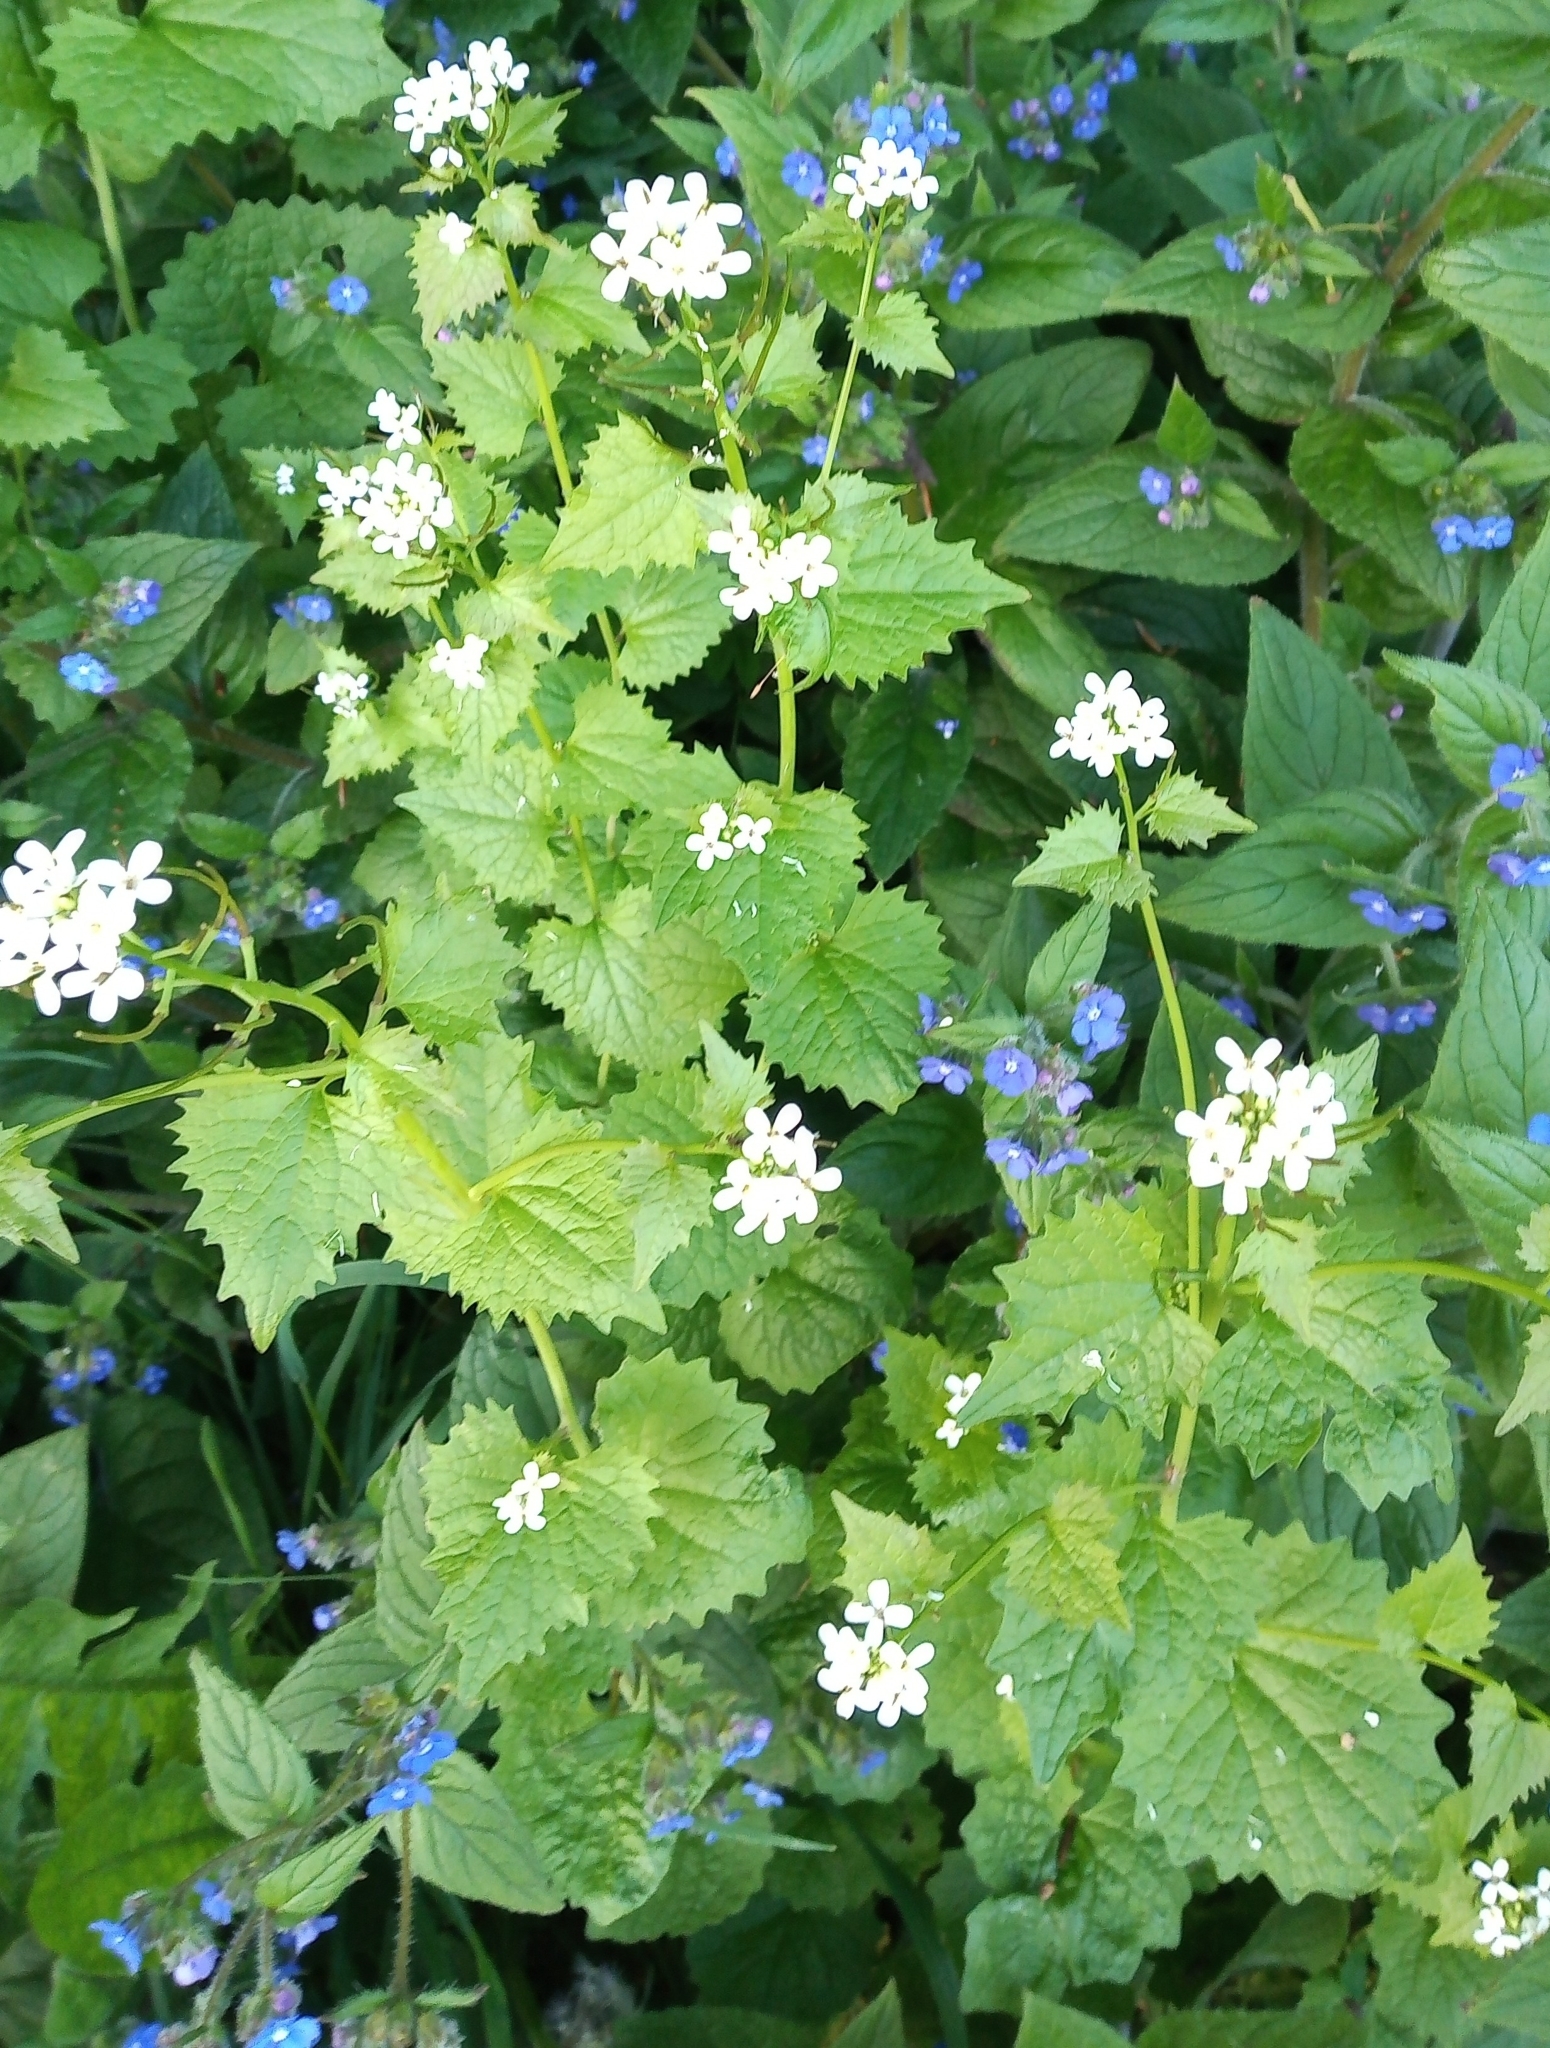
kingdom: Plantae
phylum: Tracheophyta
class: Magnoliopsida
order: Brassicales
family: Brassicaceae
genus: Alliaria
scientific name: Alliaria petiolata
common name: Garlic mustard
